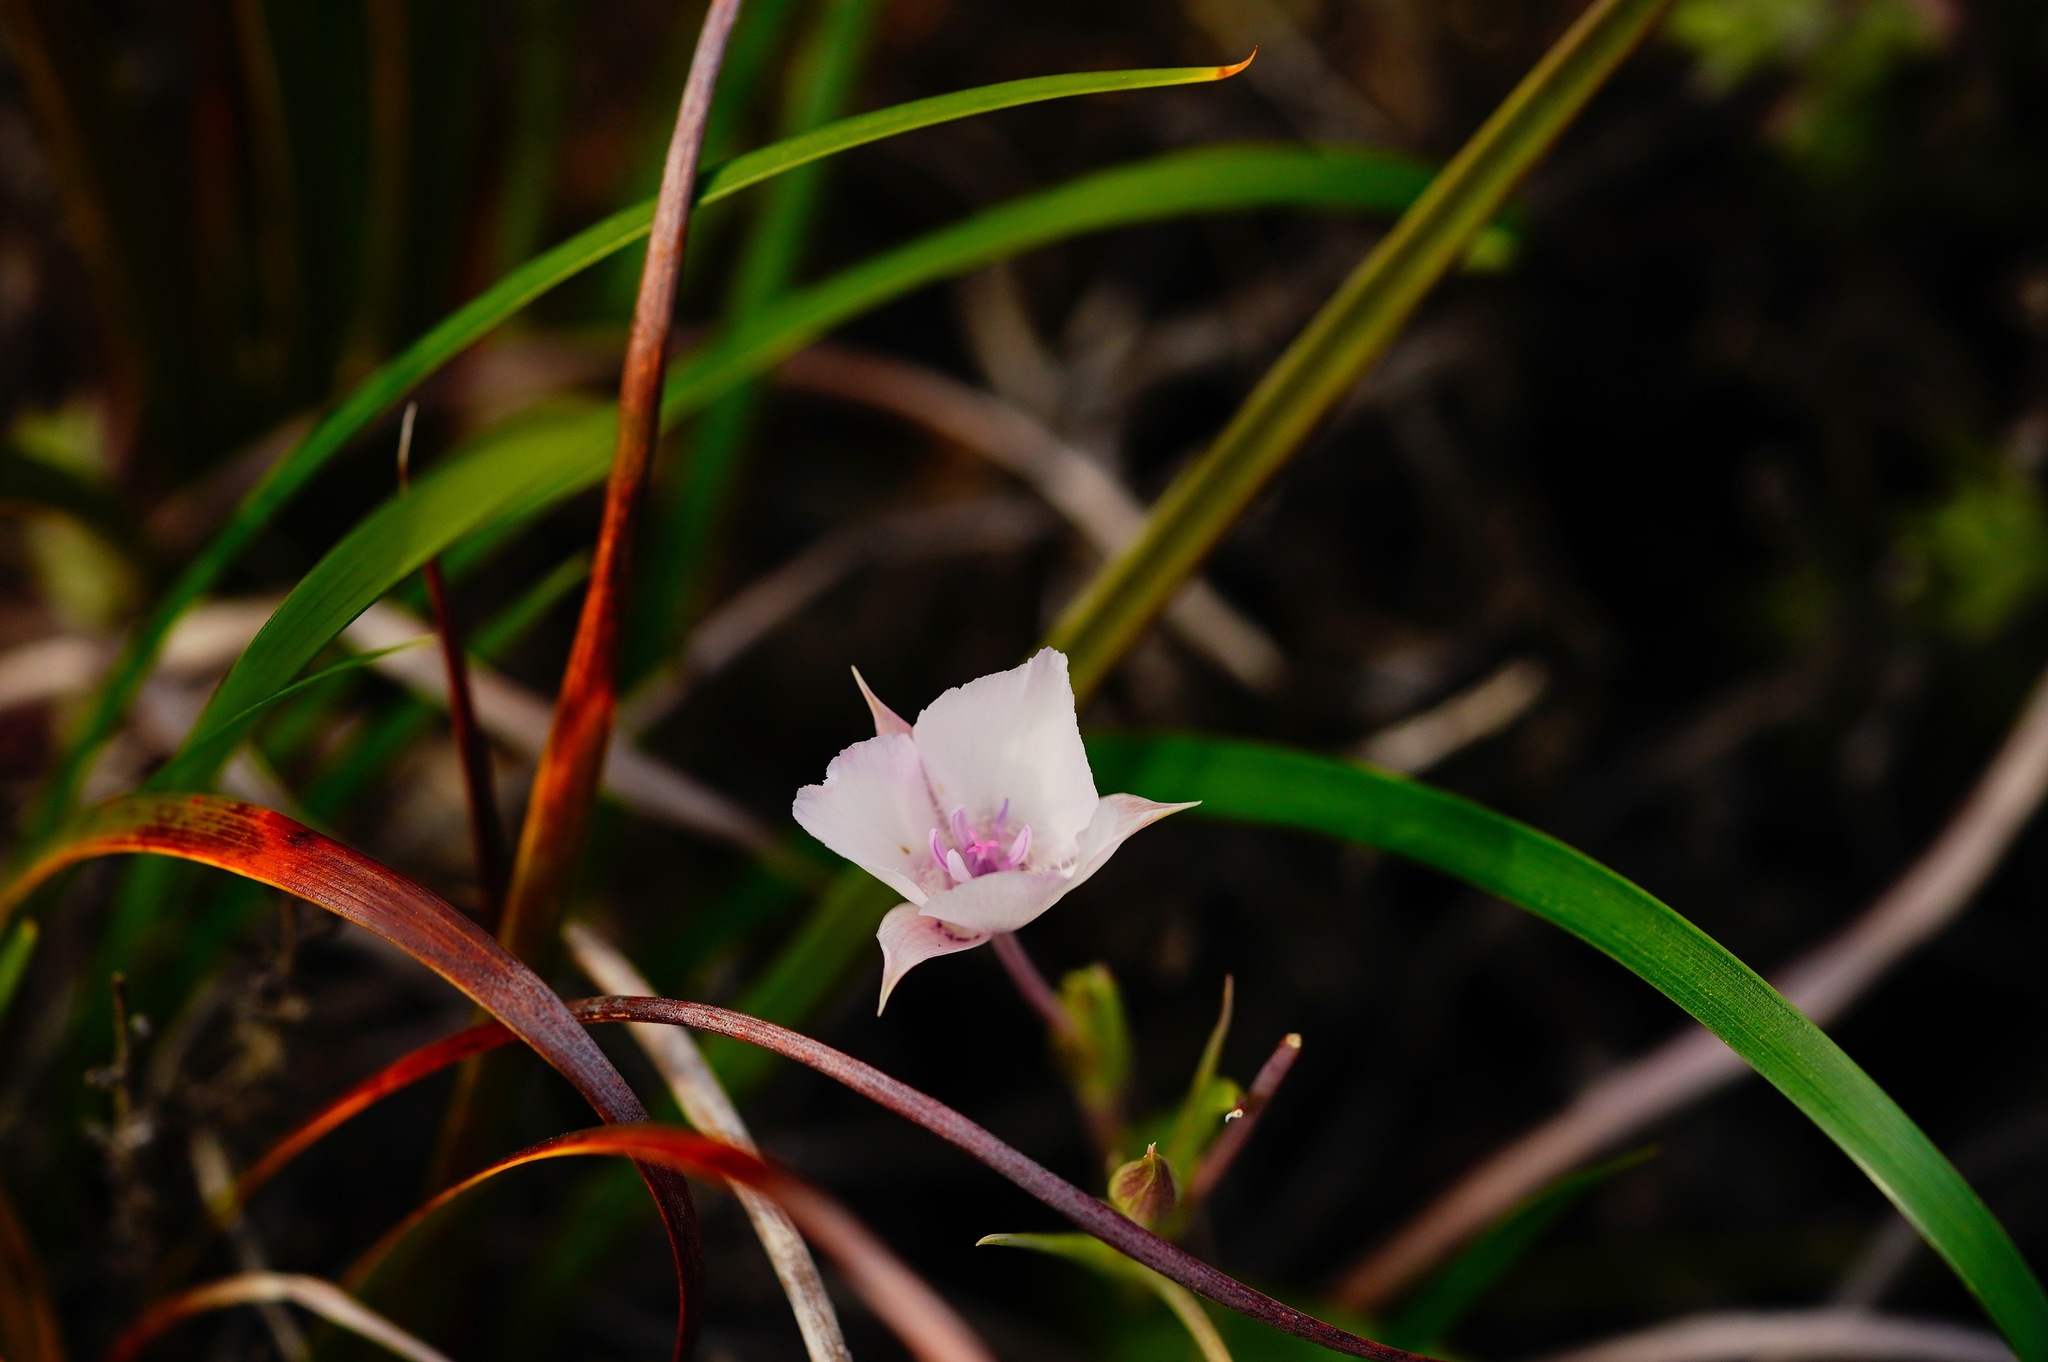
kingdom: Plantae
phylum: Tracheophyta
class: Liliopsida
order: Liliales
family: Liliaceae
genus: Calochortus
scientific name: Calochortus umbellatus
